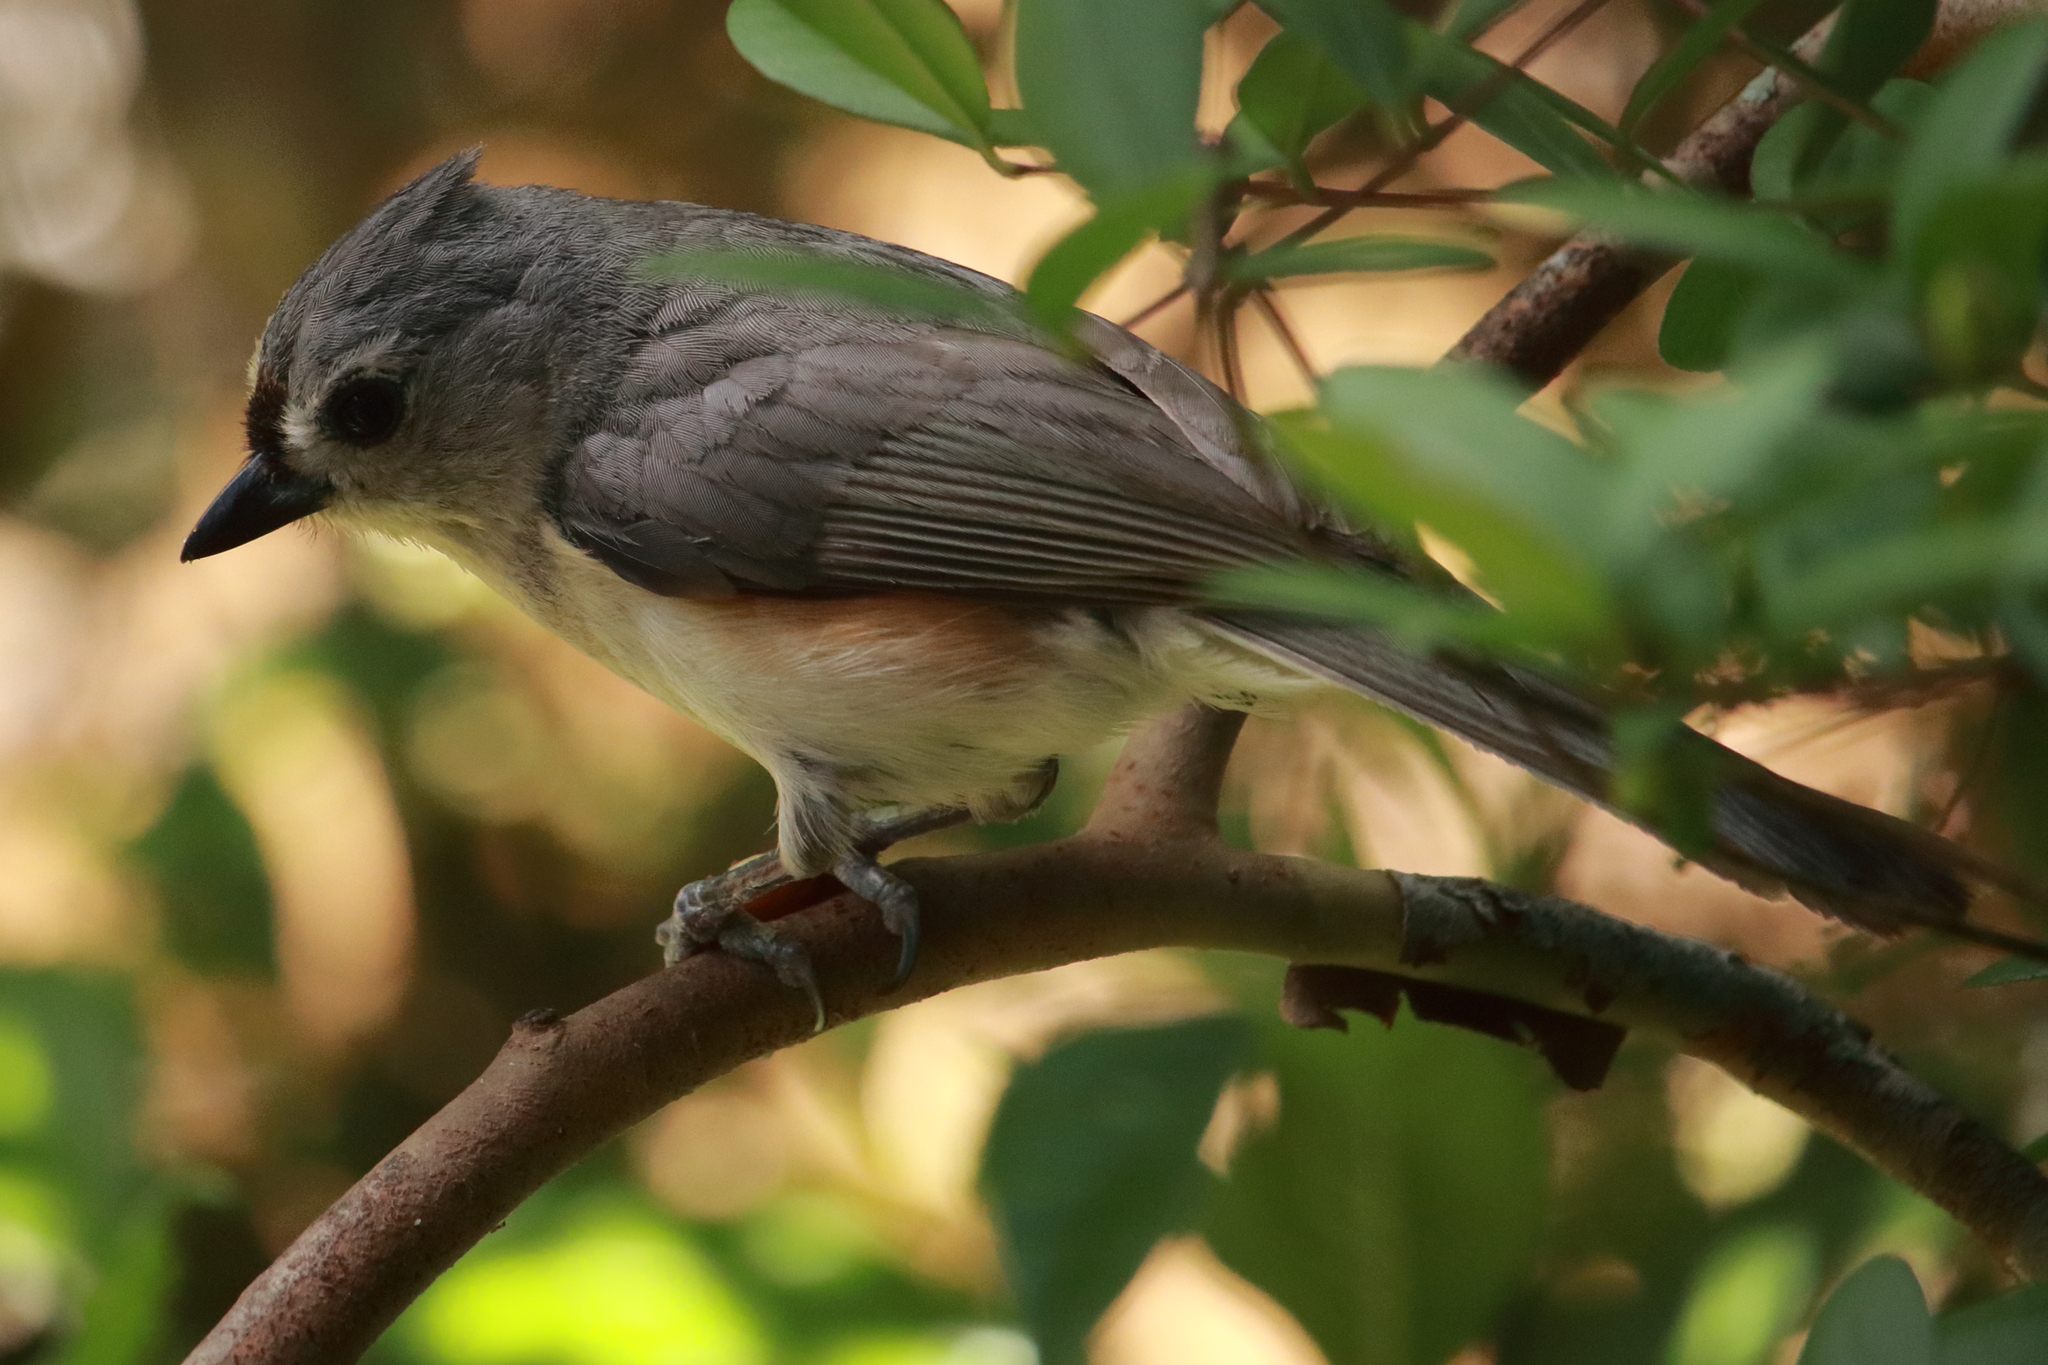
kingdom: Animalia
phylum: Chordata
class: Aves
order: Passeriformes
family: Paridae
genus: Baeolophus
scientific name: Baeolophus bicolor
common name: Tufted titmouse
